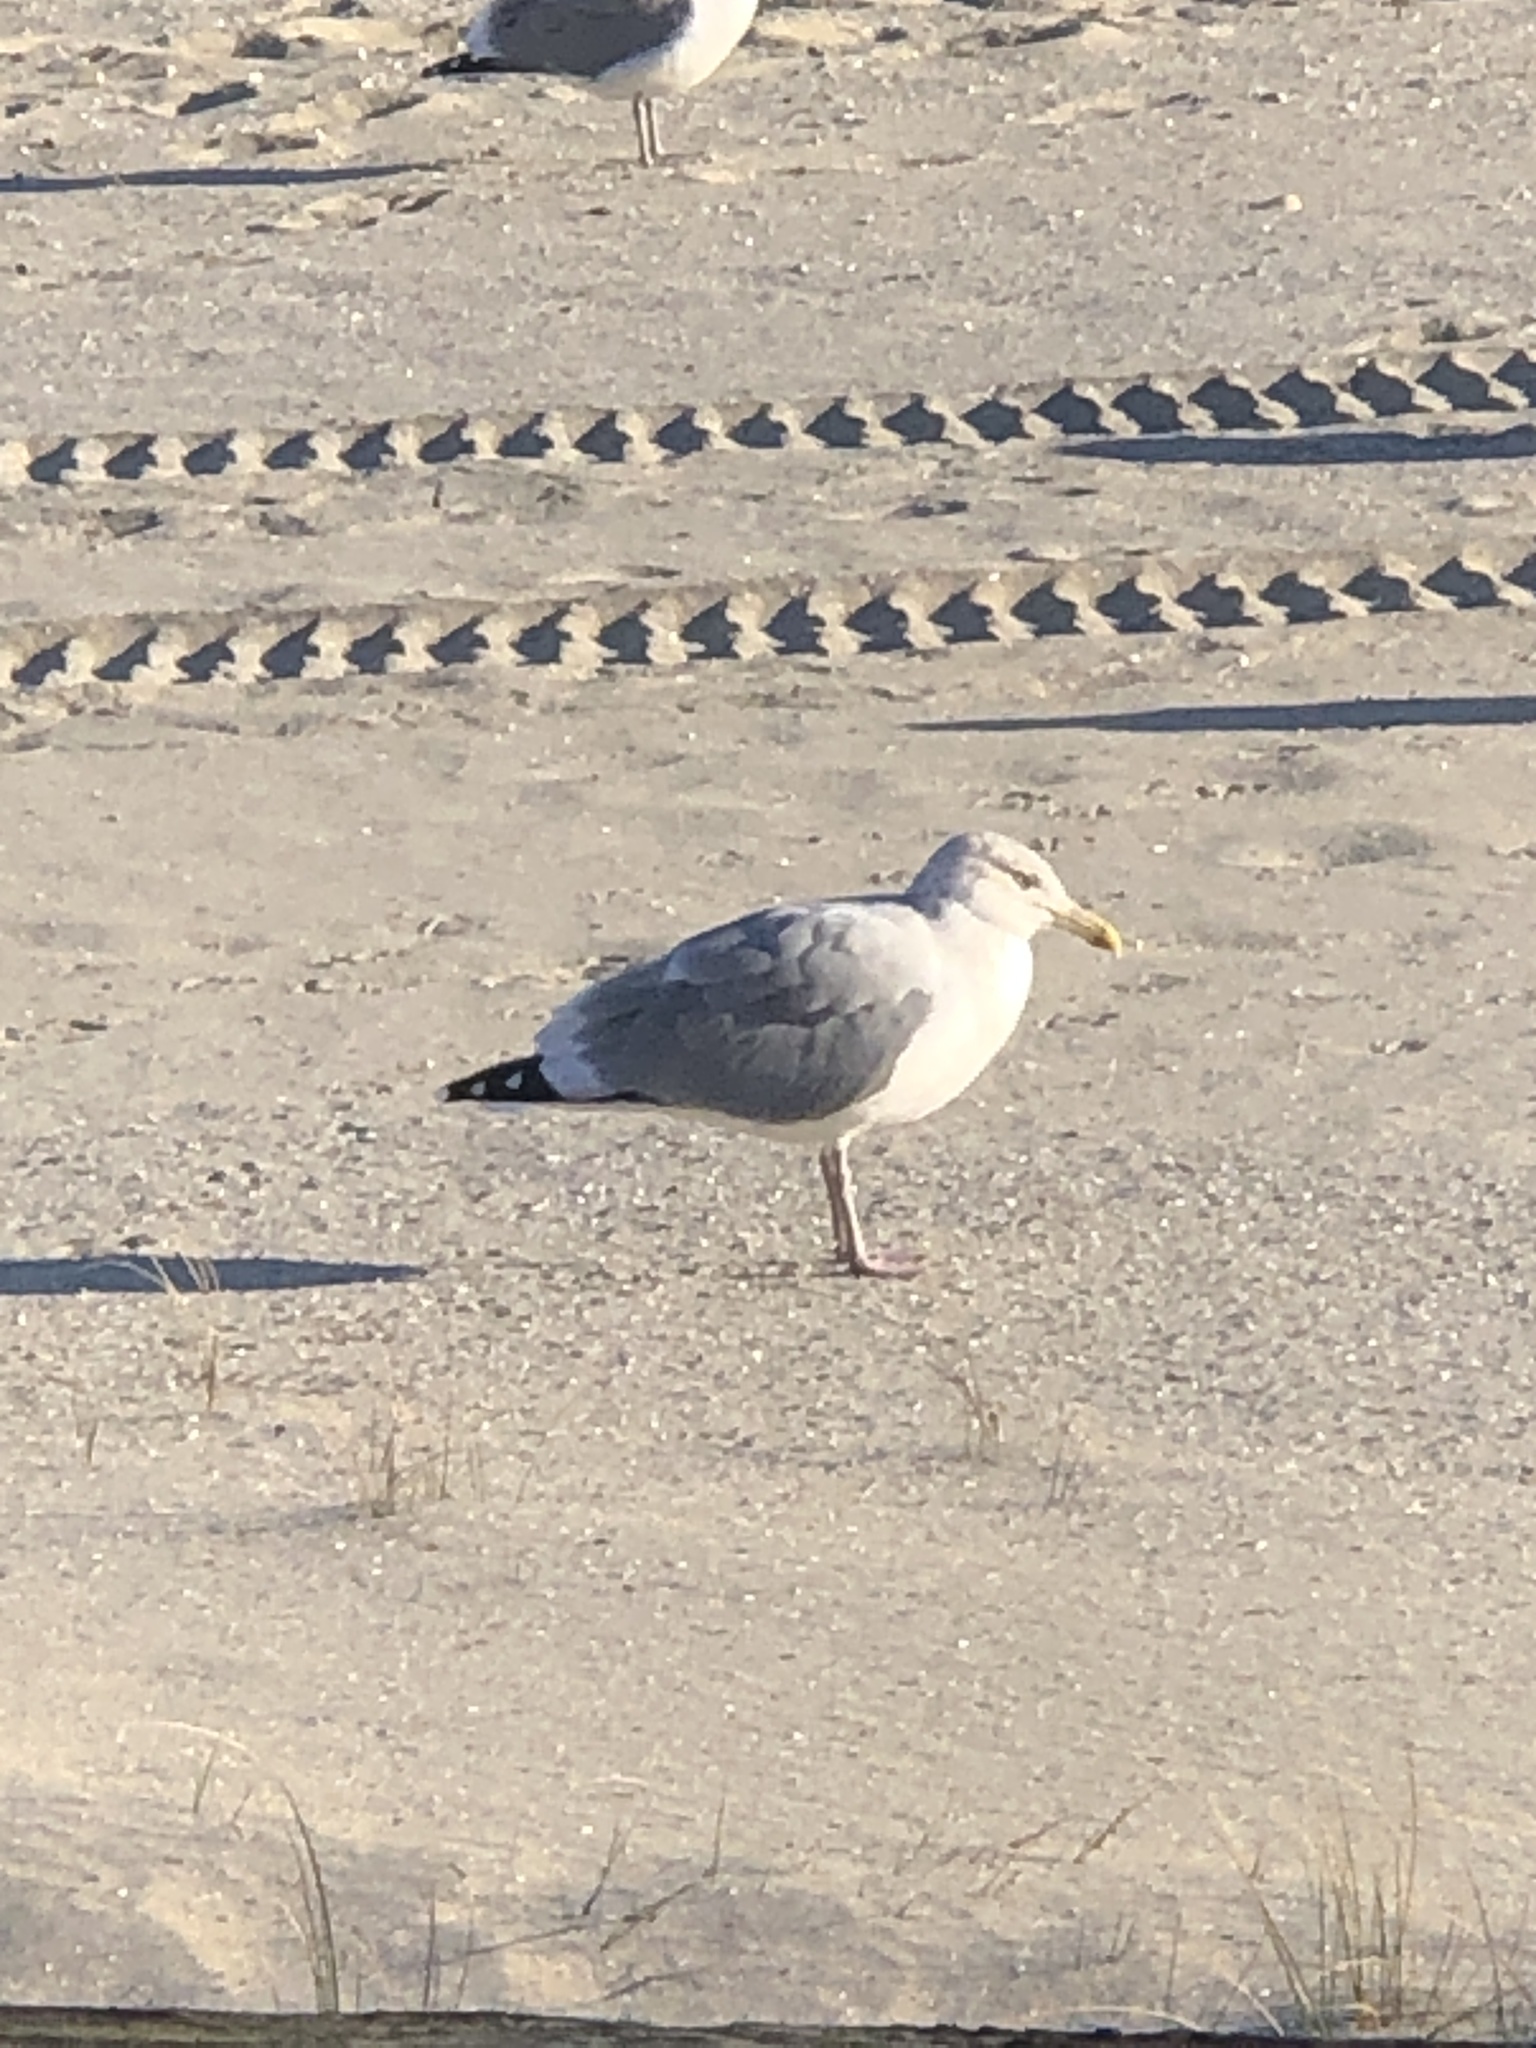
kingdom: Animalia
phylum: Chordata
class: Aves
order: Charadriiformes
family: Laridae
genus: Larus
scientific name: Larus argentatus
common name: Herring gull
